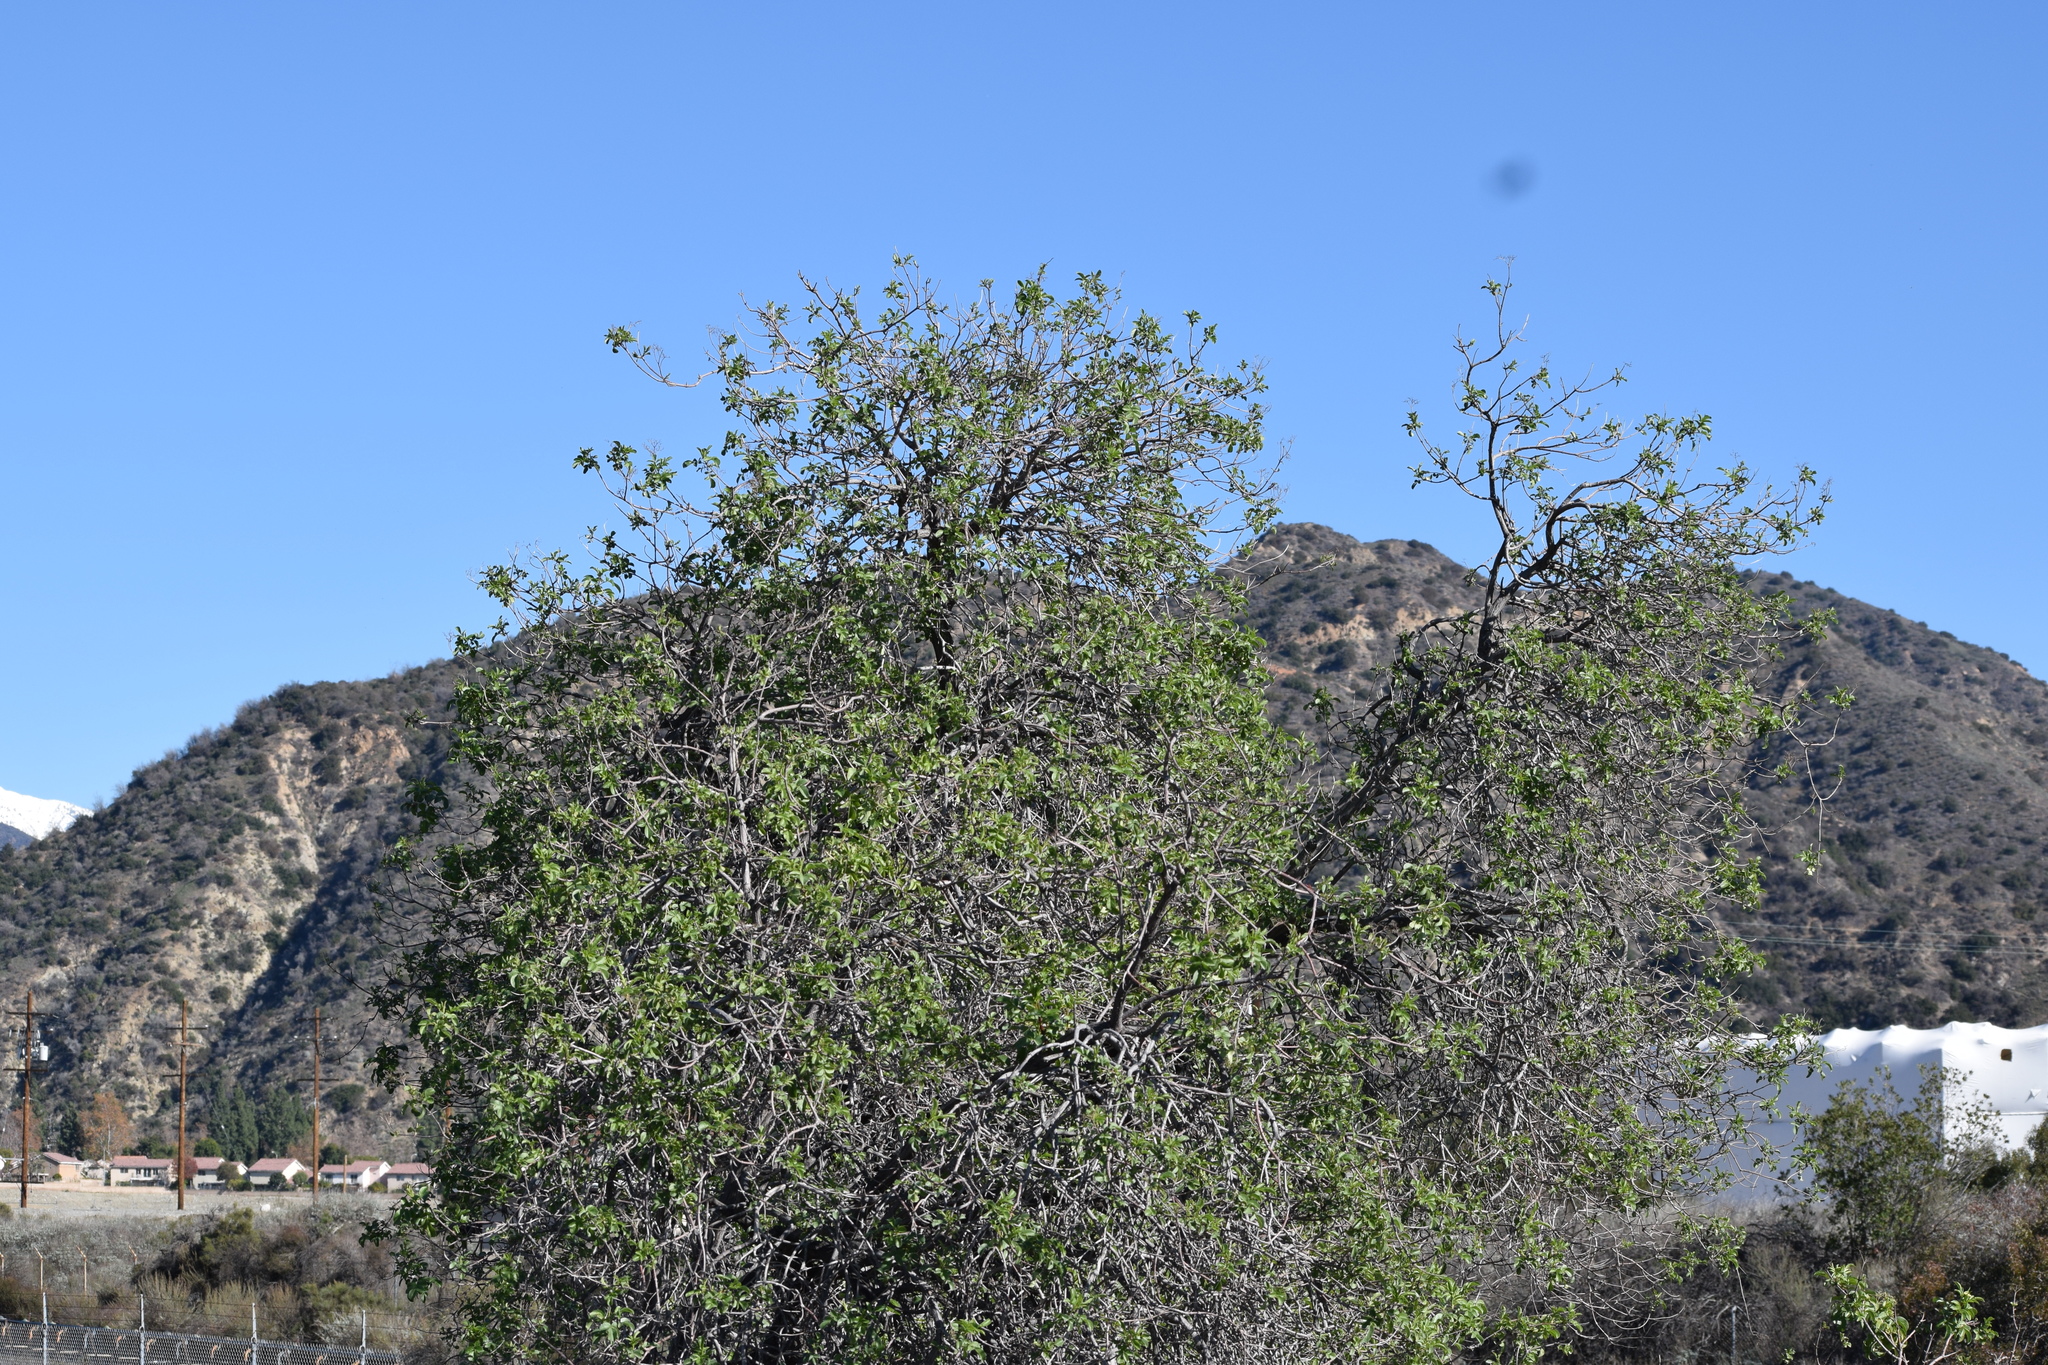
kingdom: Plantae
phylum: Tracheophyta
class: Magnoliopsida
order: Dipsacales
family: Viburnaceae
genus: Sambucus
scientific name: Sambucus cerulea
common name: Blue elder
